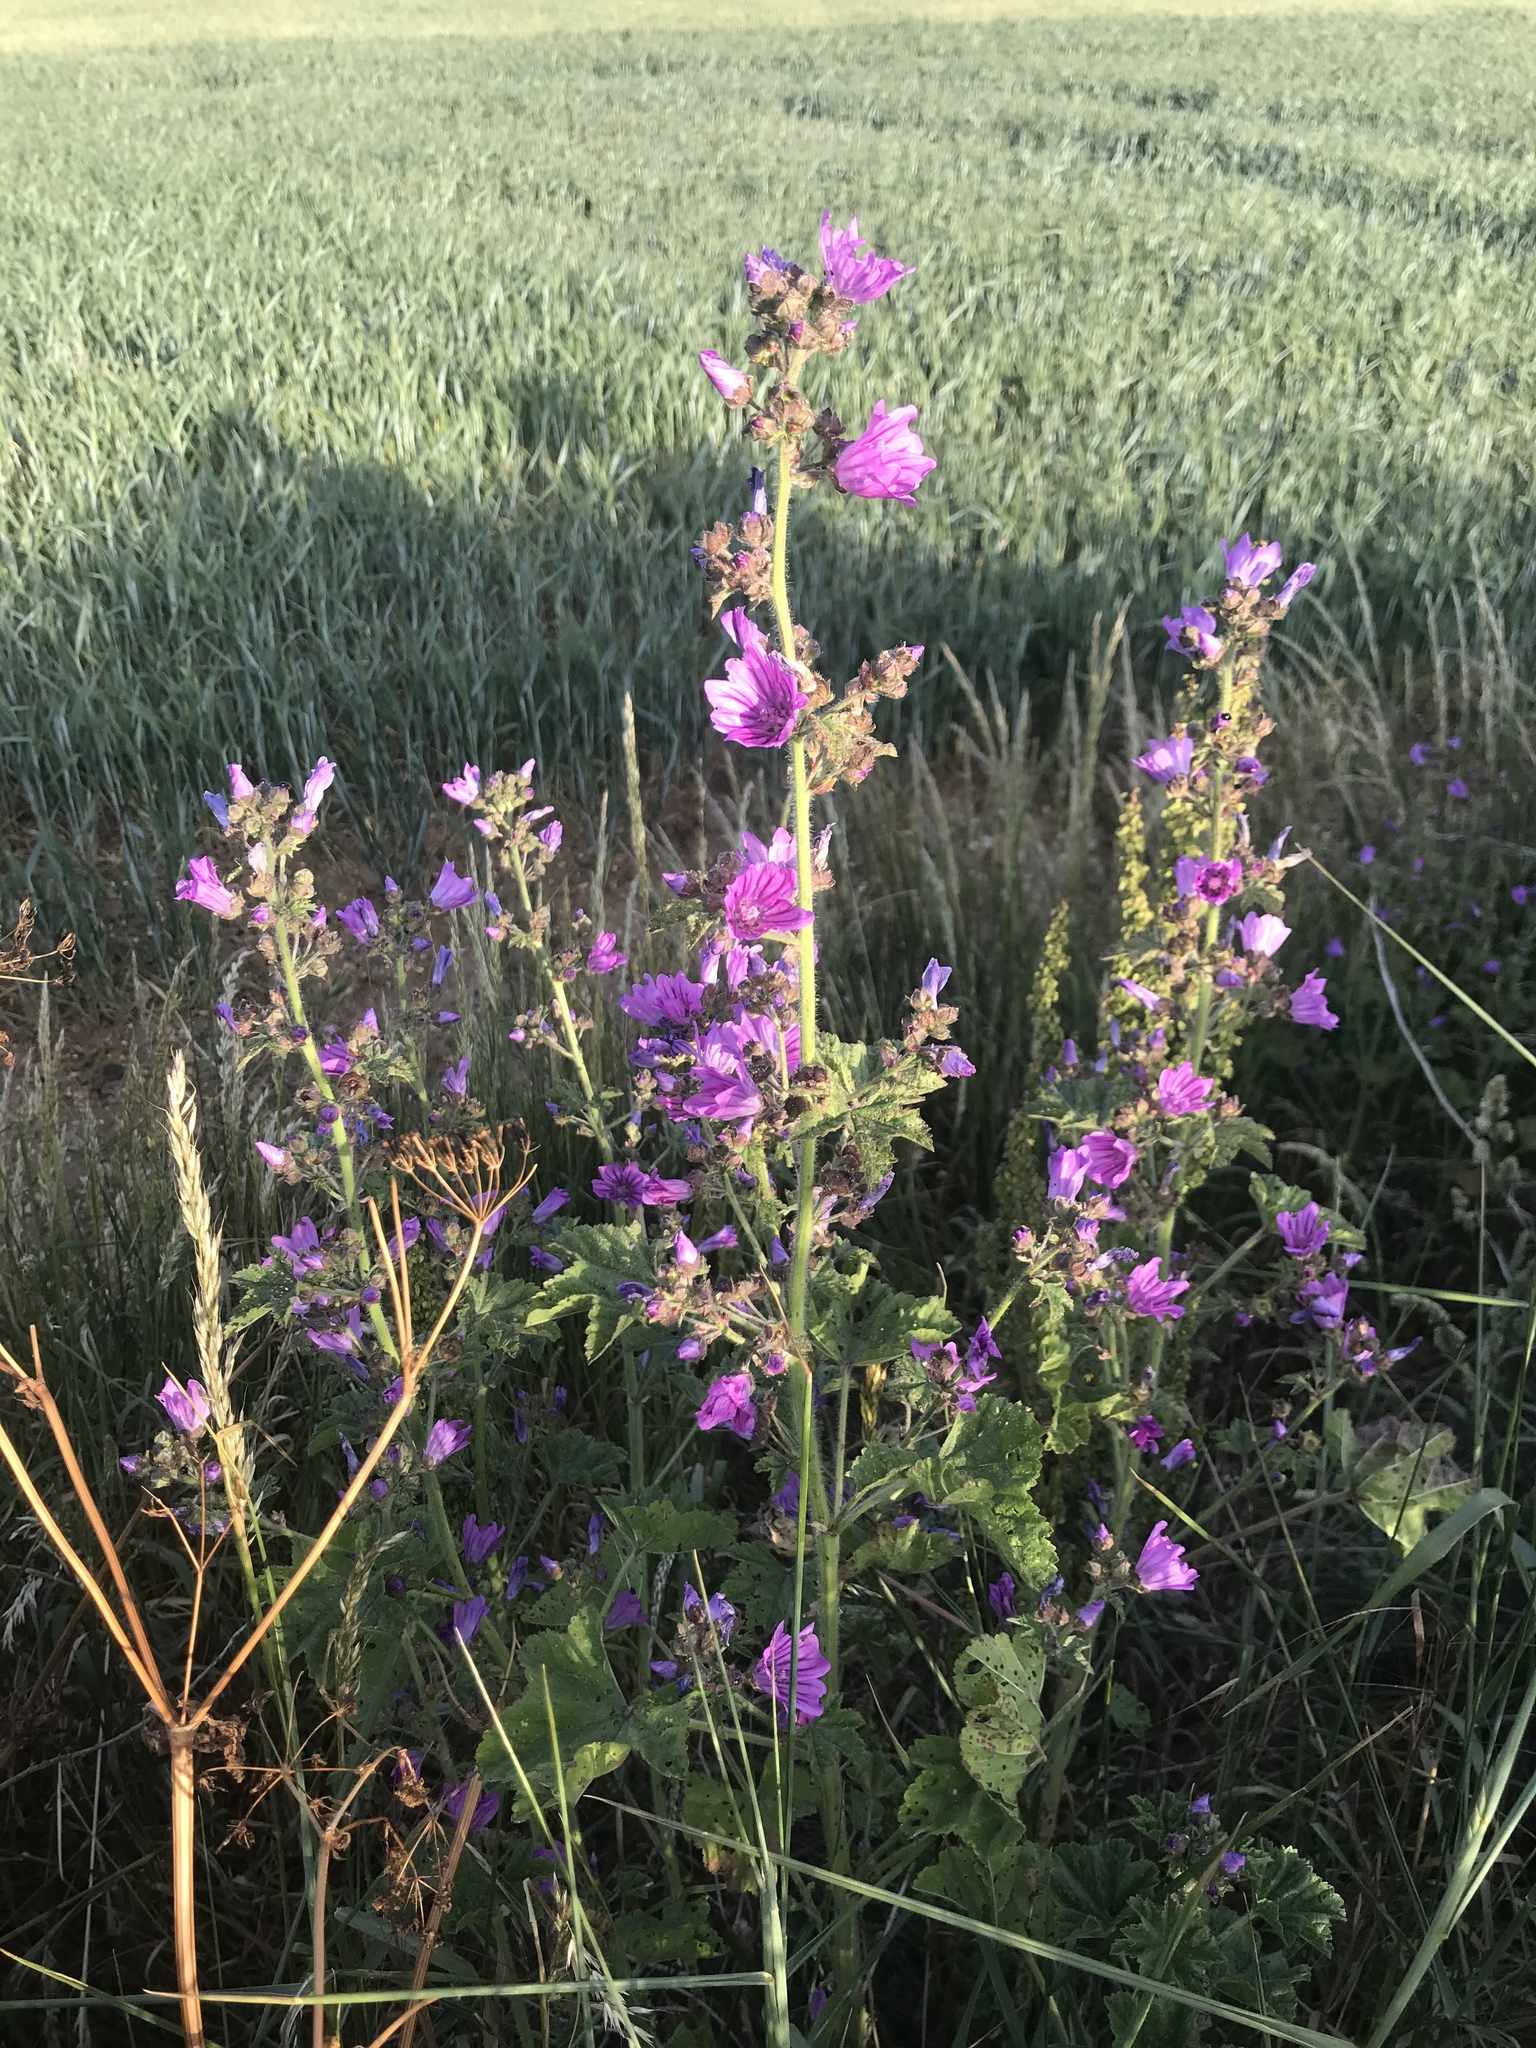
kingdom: Plantae
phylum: Tracheophyta
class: Magnoliopsida
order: Malvales
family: Malvaceae
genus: Malva
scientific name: Malva sylvestris
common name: Common mallow
